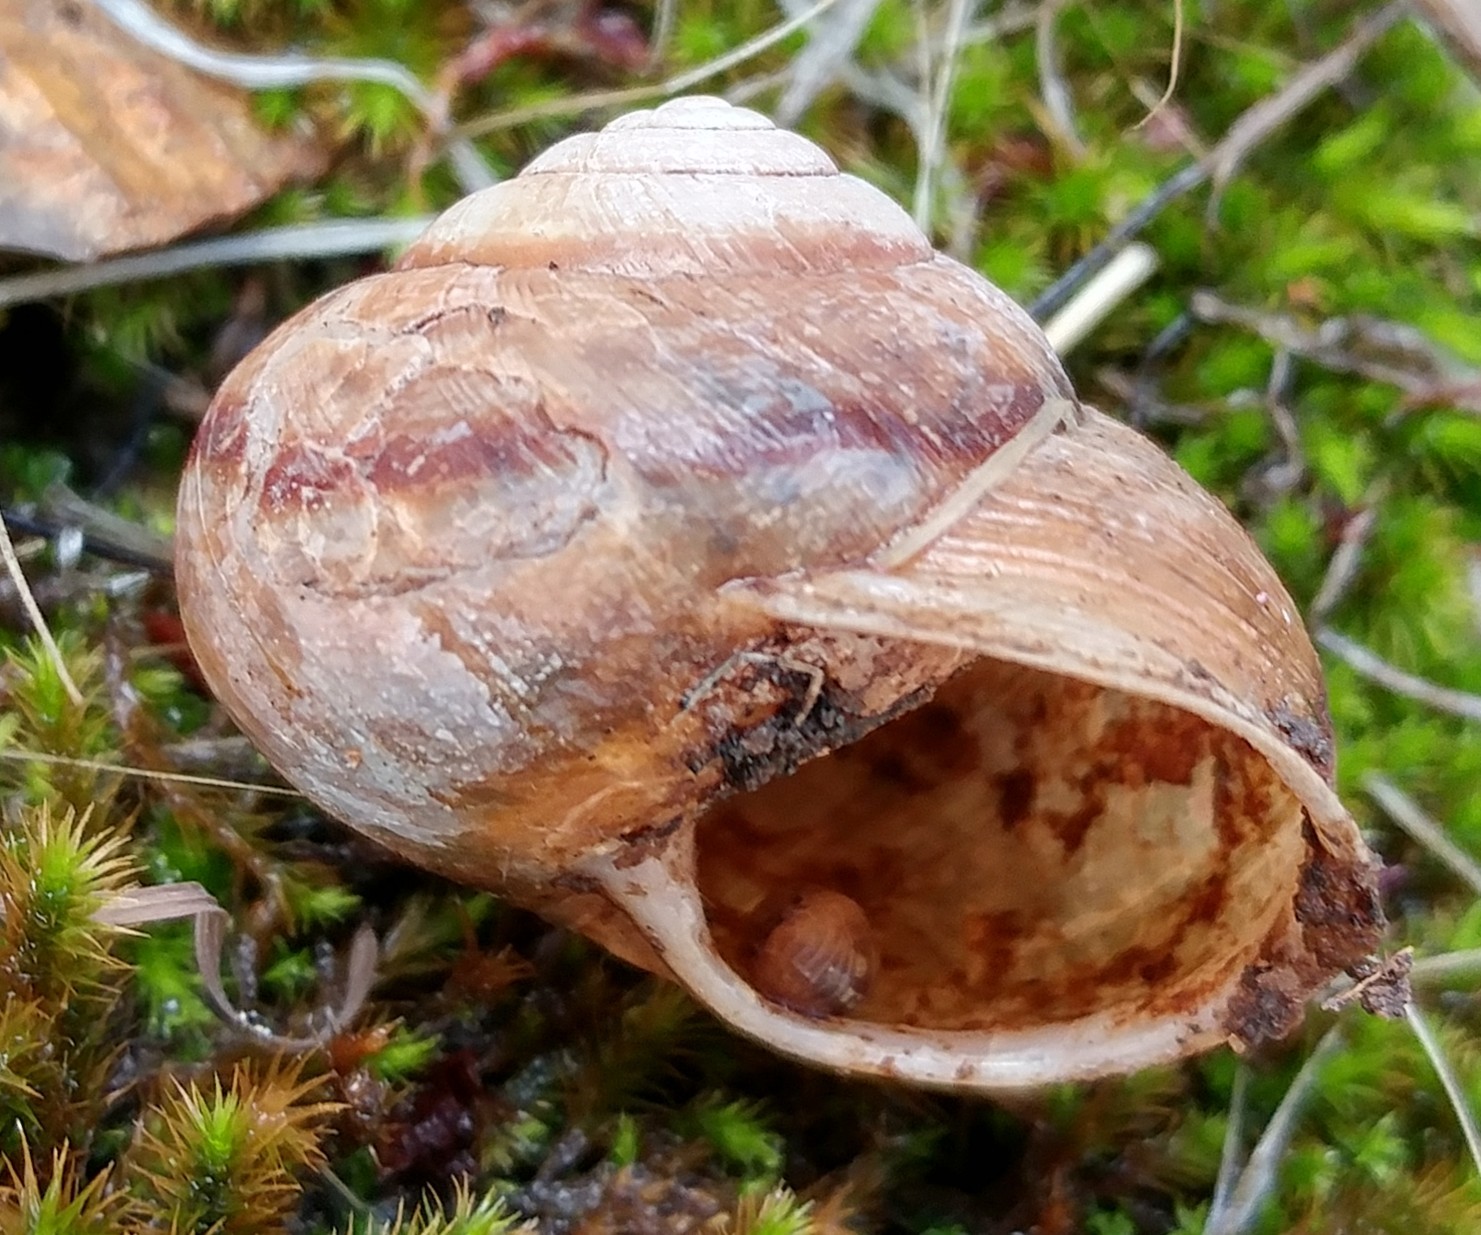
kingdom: Animalia
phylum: Mollusca
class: Gastropoda
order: Stylommatophora
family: Xanthonychidae
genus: Xerarionta
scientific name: Xerarionta stearnsiana
